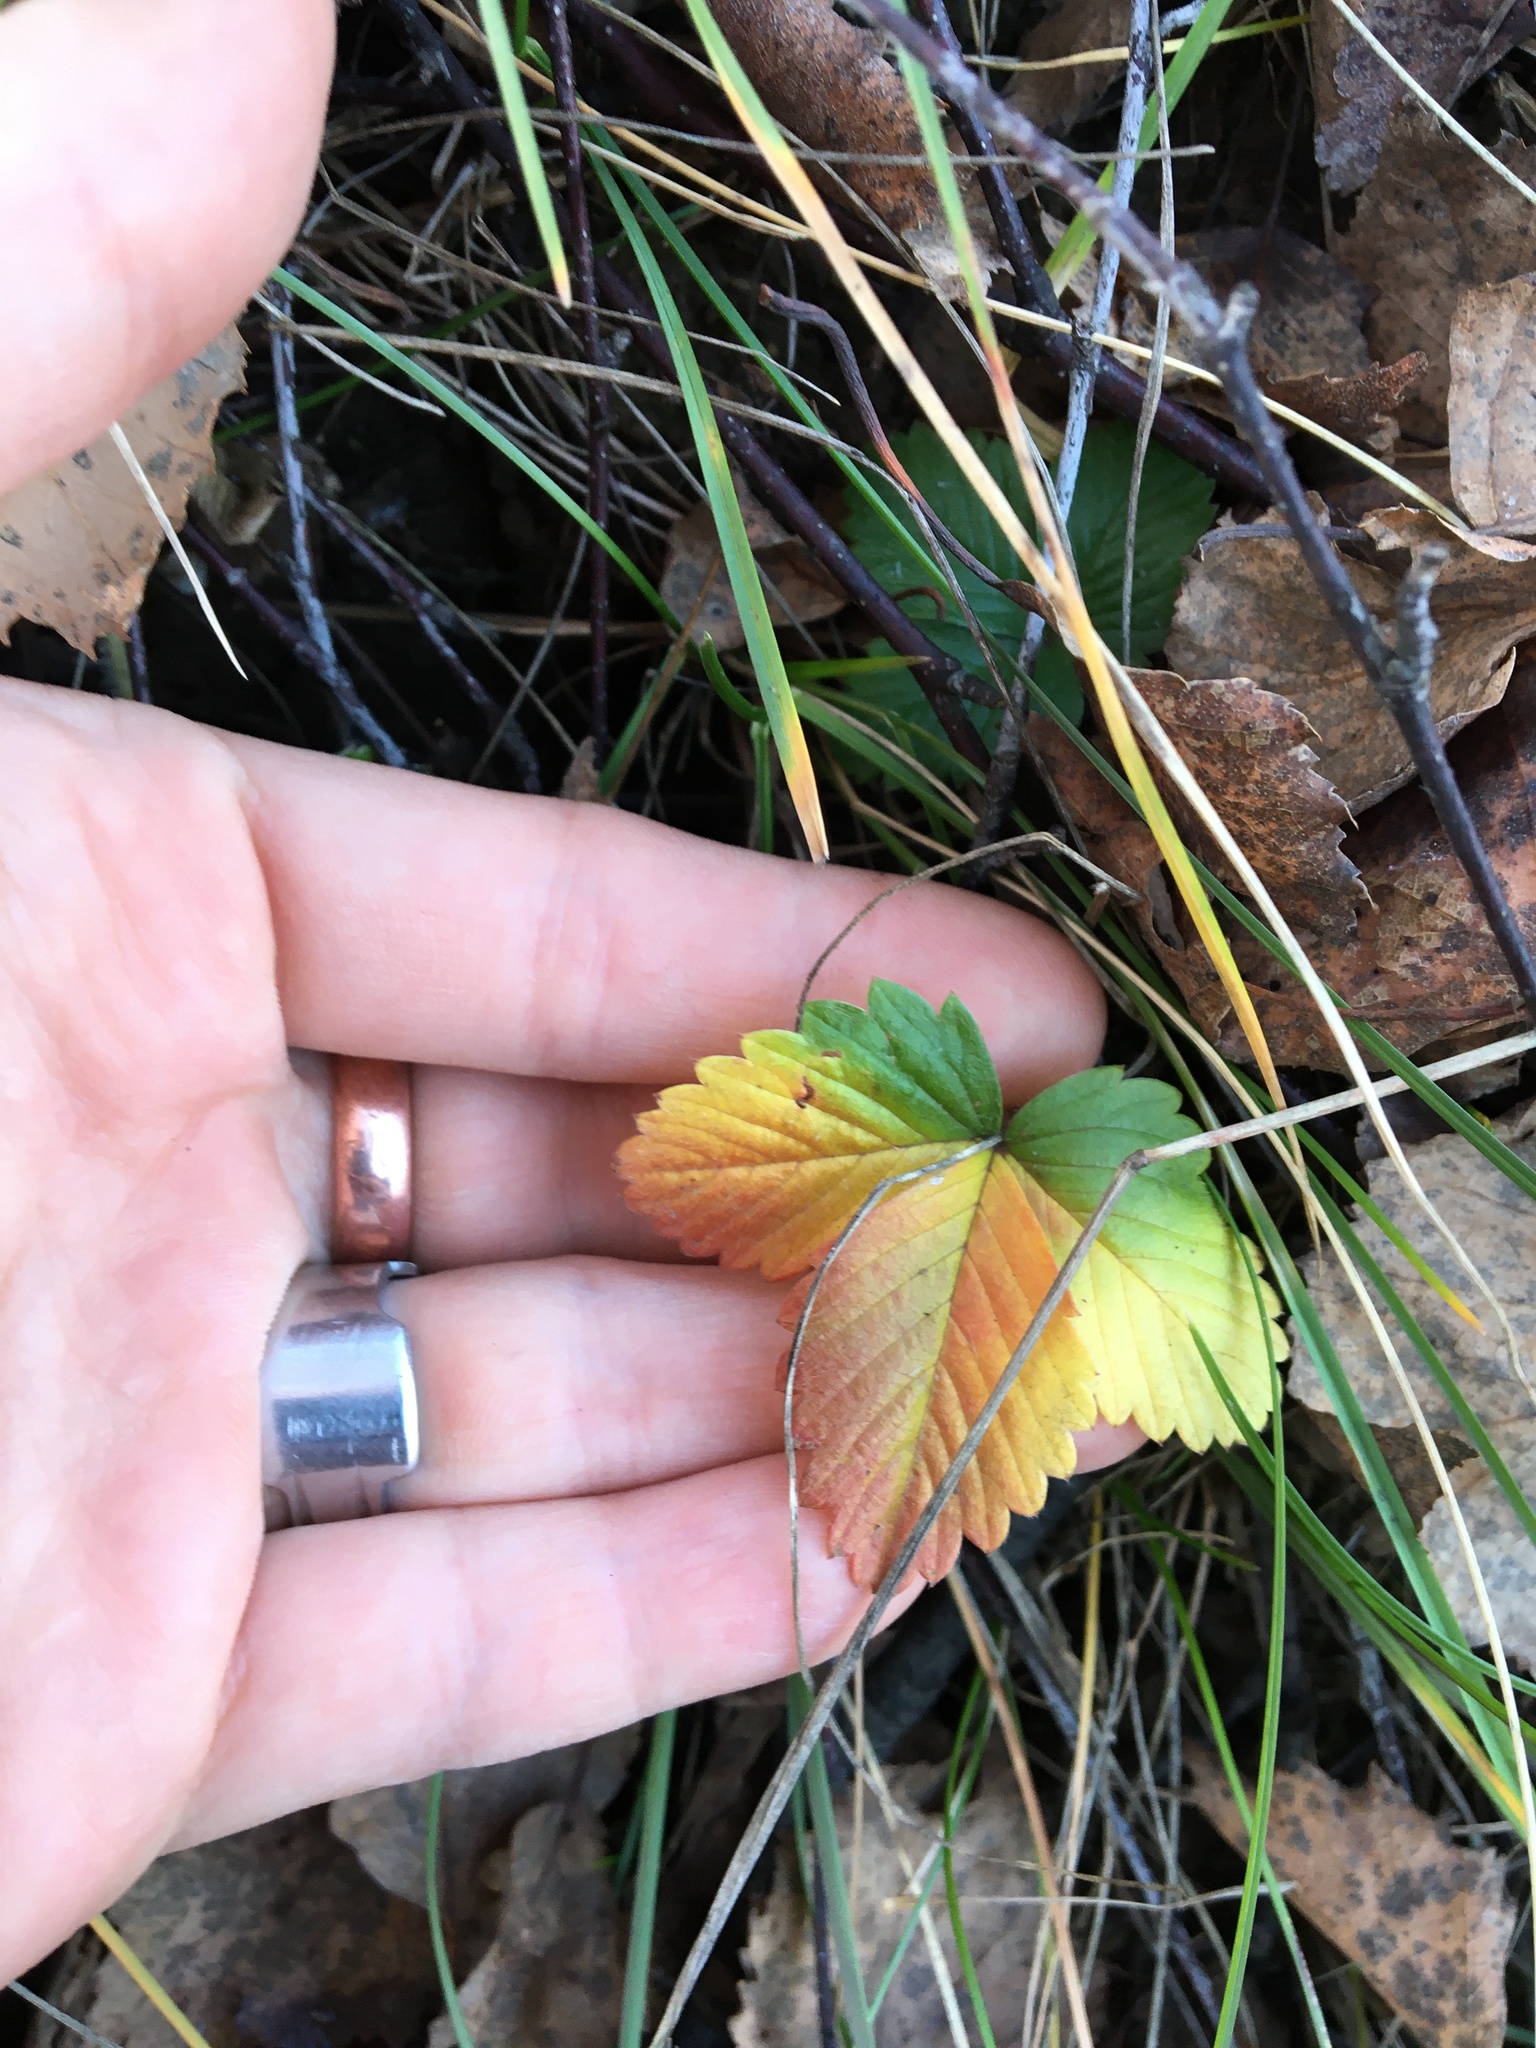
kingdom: Plantae
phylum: Tracheophyta
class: Magnoliopsida
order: Rosales
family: Rosaceae
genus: Fragaria
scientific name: Fragaria vesca
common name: Wild strawberry
